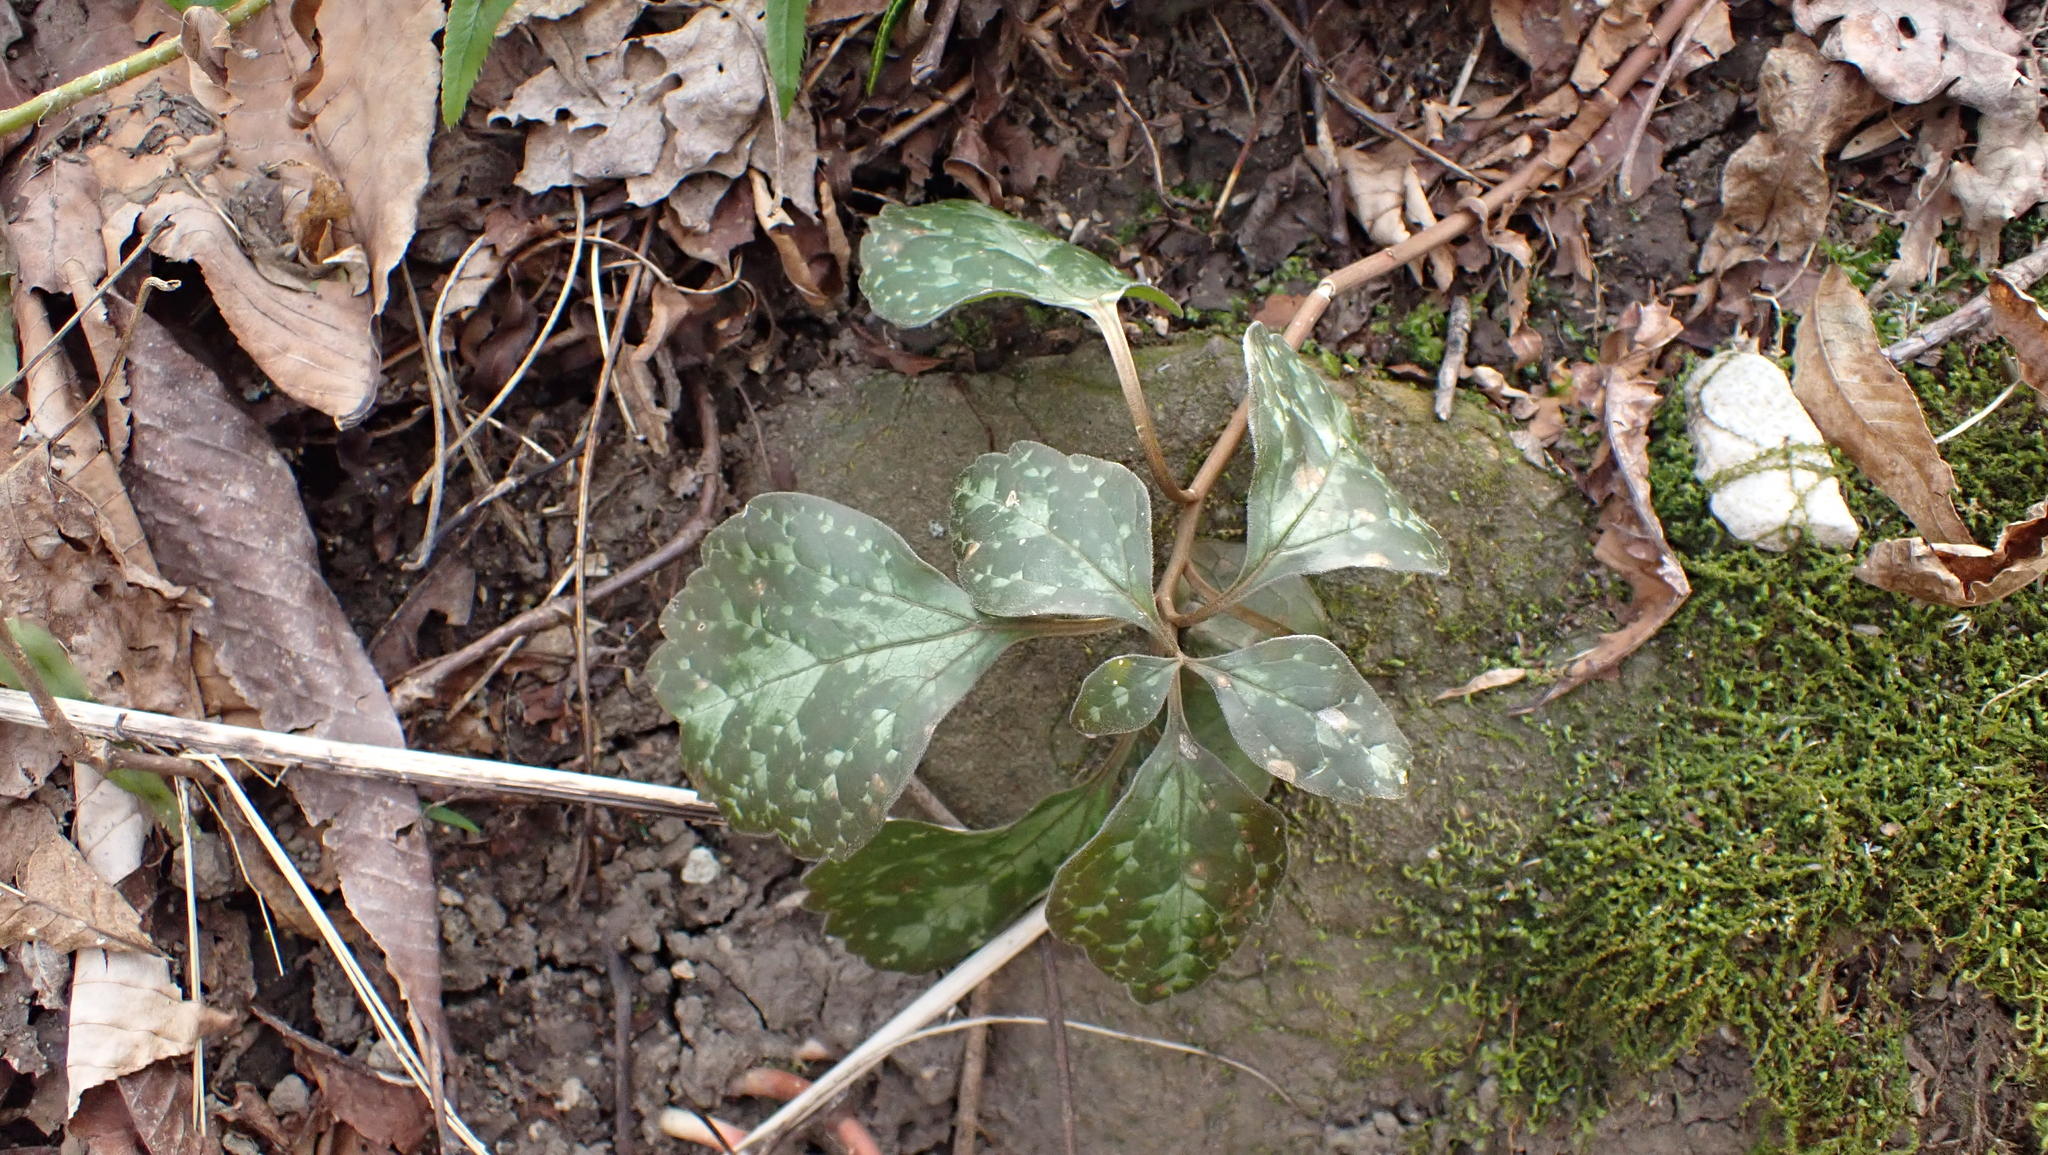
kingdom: Plantae
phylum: Tracheophyta
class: Magnoliopsida
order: Buxales
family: Buxaceae
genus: Pachysandra
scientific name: Pachysandra procumbens
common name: Mountain-spurge
